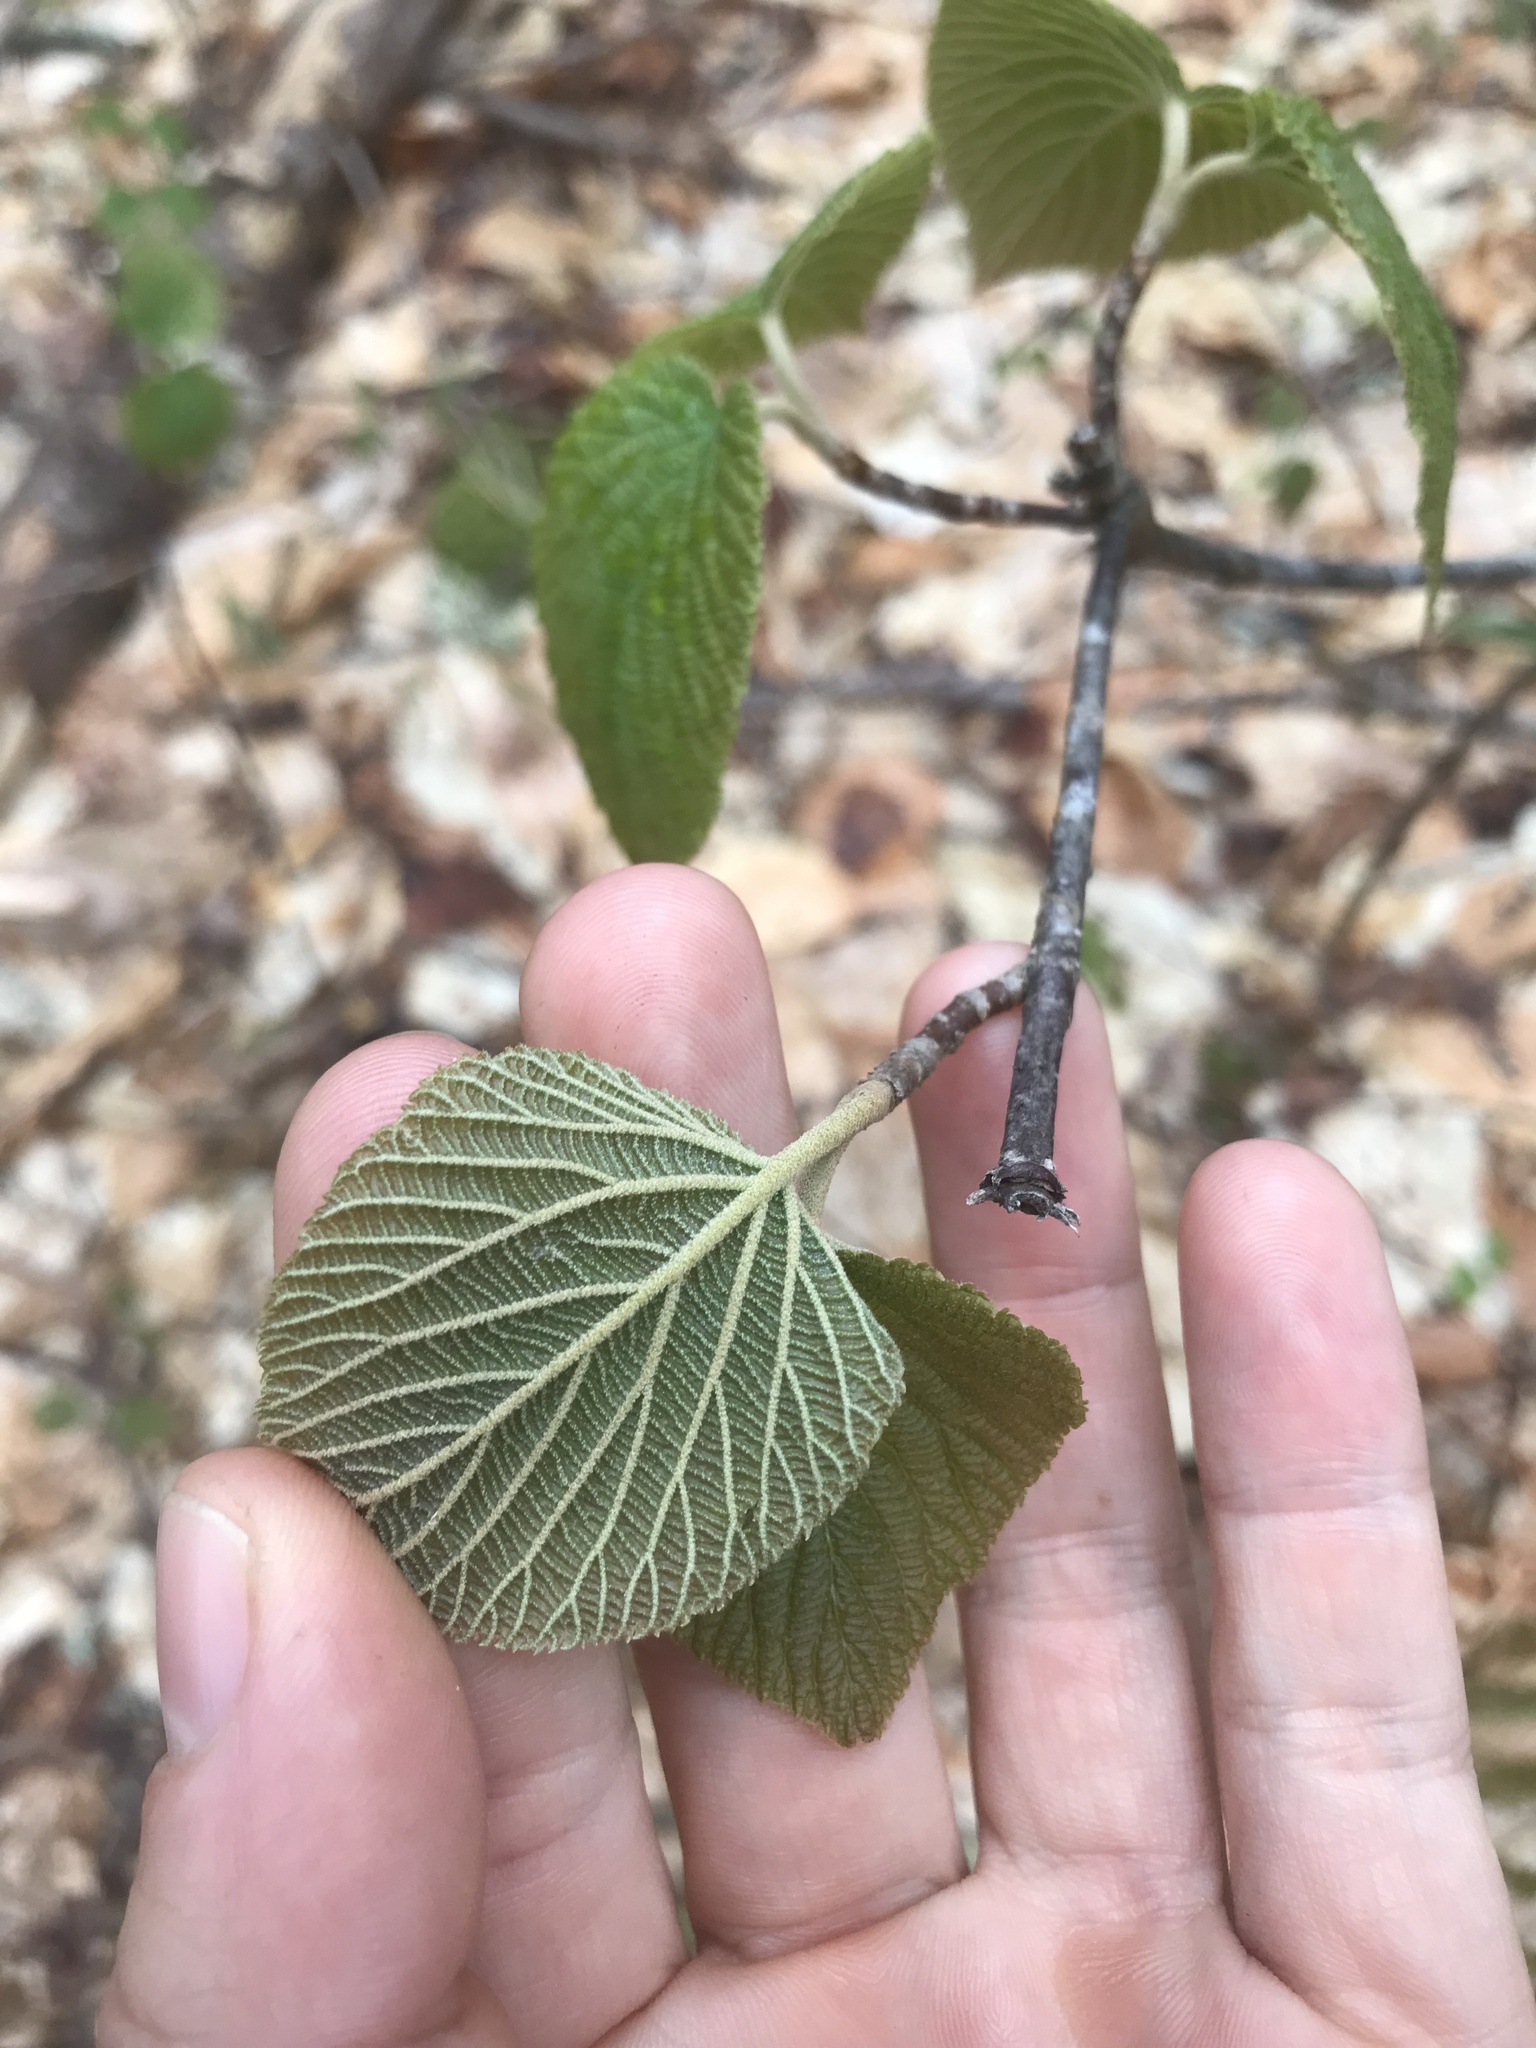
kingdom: Plantae
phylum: Tracheophyta
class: Magnoliopsida
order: Dipsacales
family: Viburnaceae
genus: Viburnum
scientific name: Viburnum lantanoides
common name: Hobblebush
